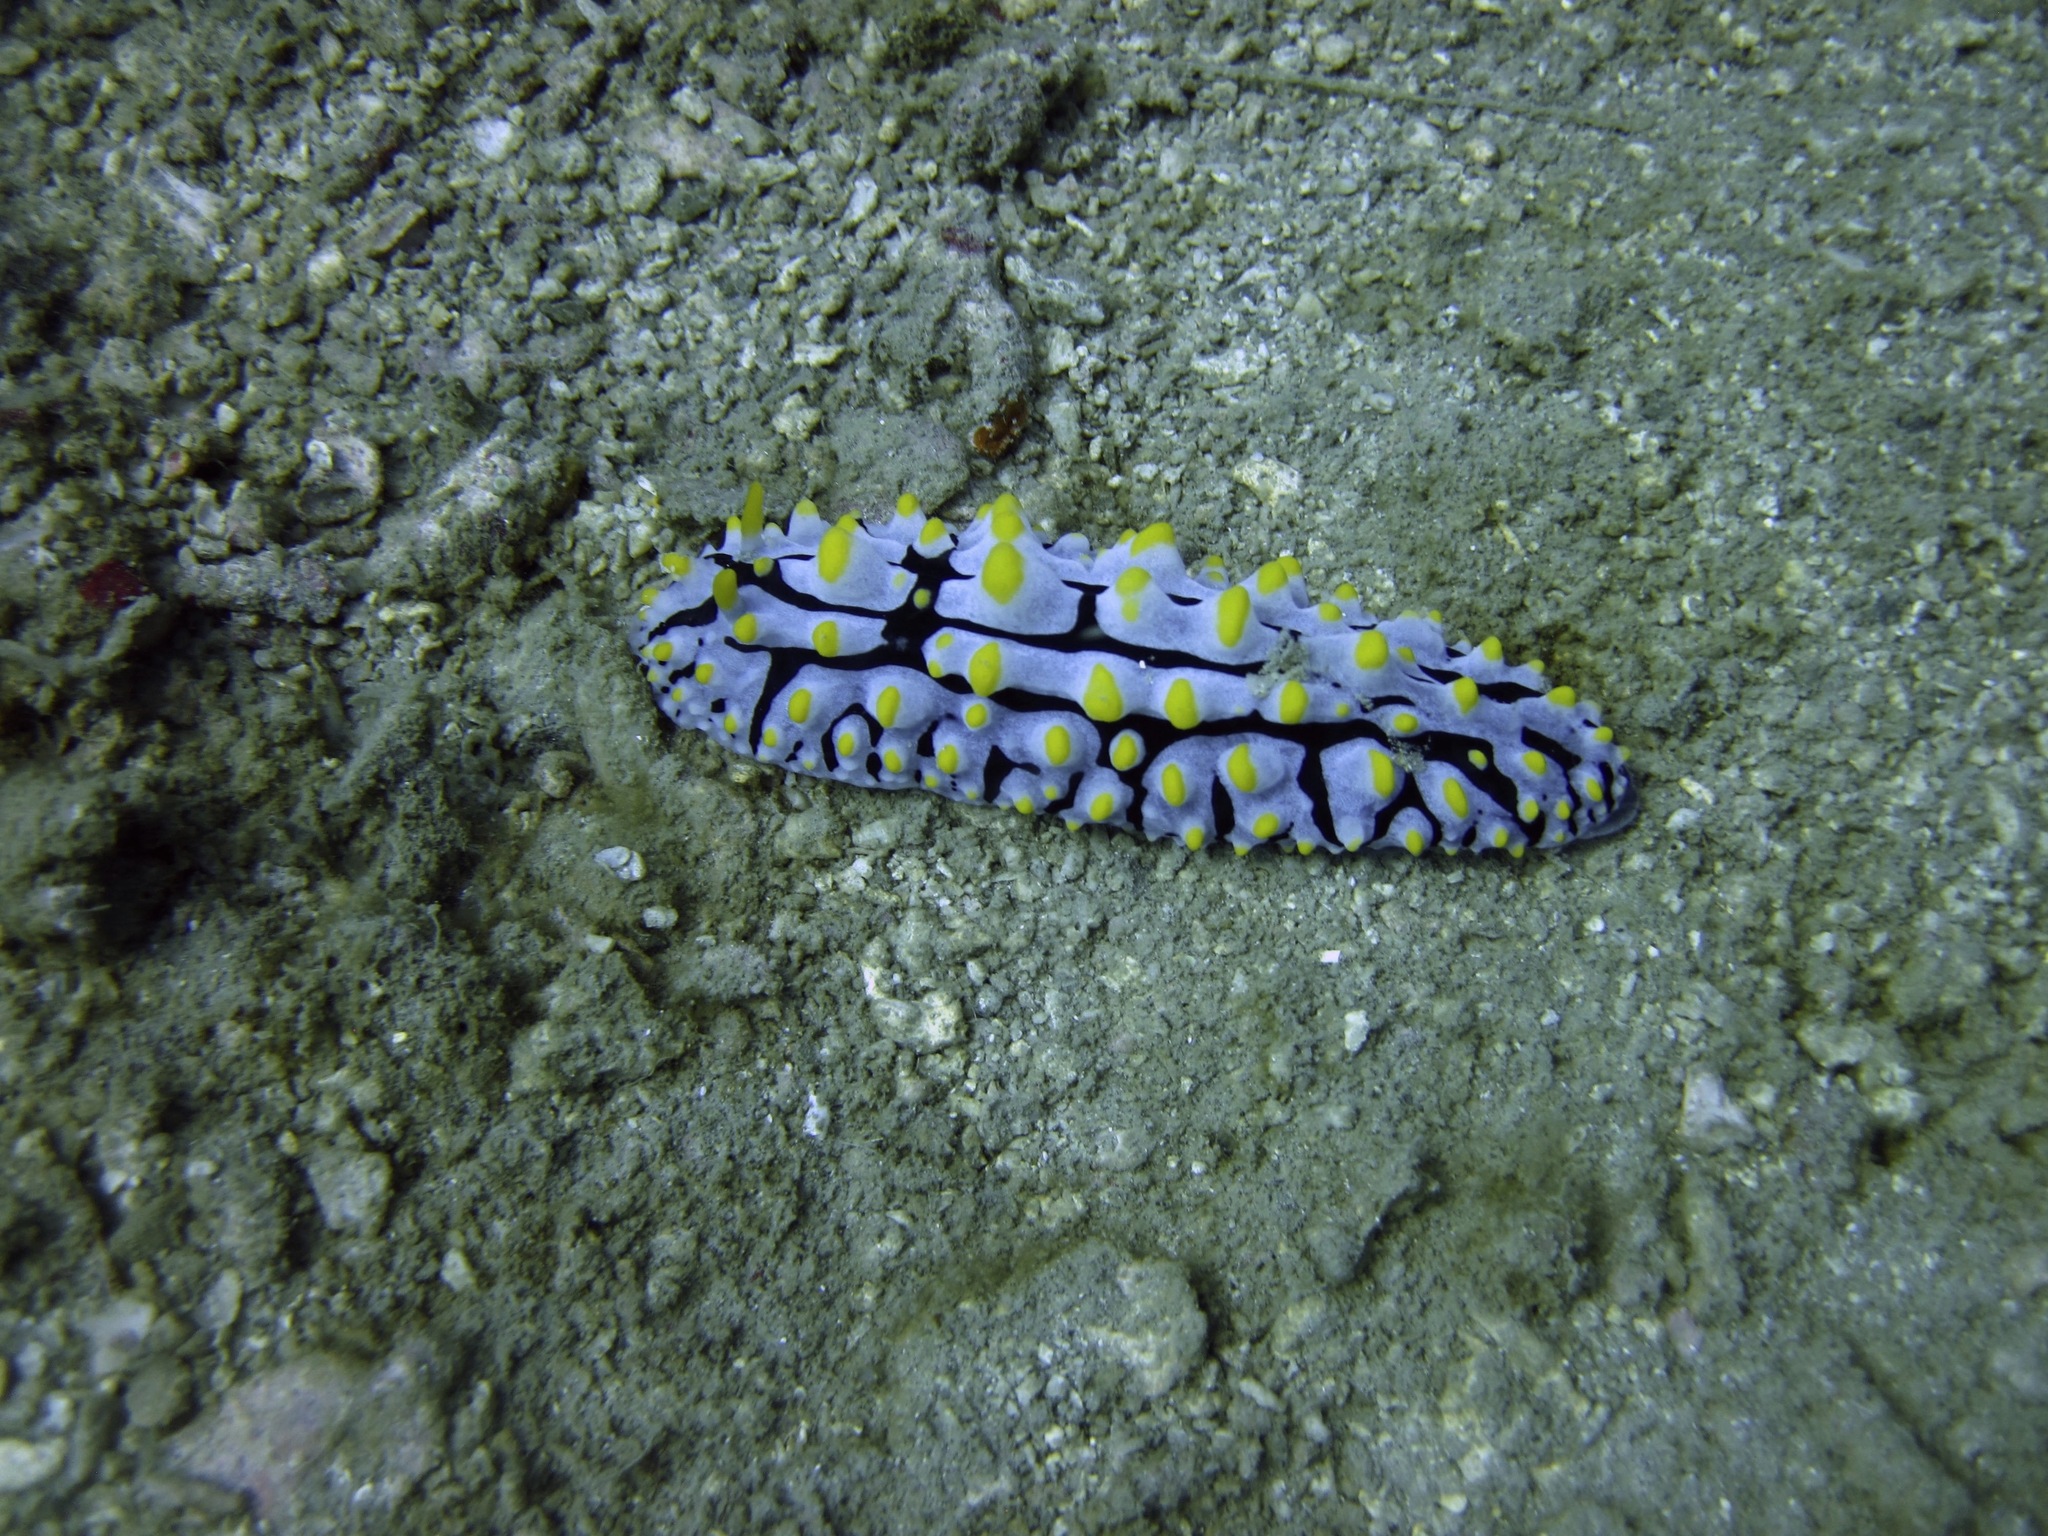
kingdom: Animalia
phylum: Mollusca
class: Gastropoda
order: Nudibranchia
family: Phyllidiidae
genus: Phyllidia
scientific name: Phyllidia varicosa
